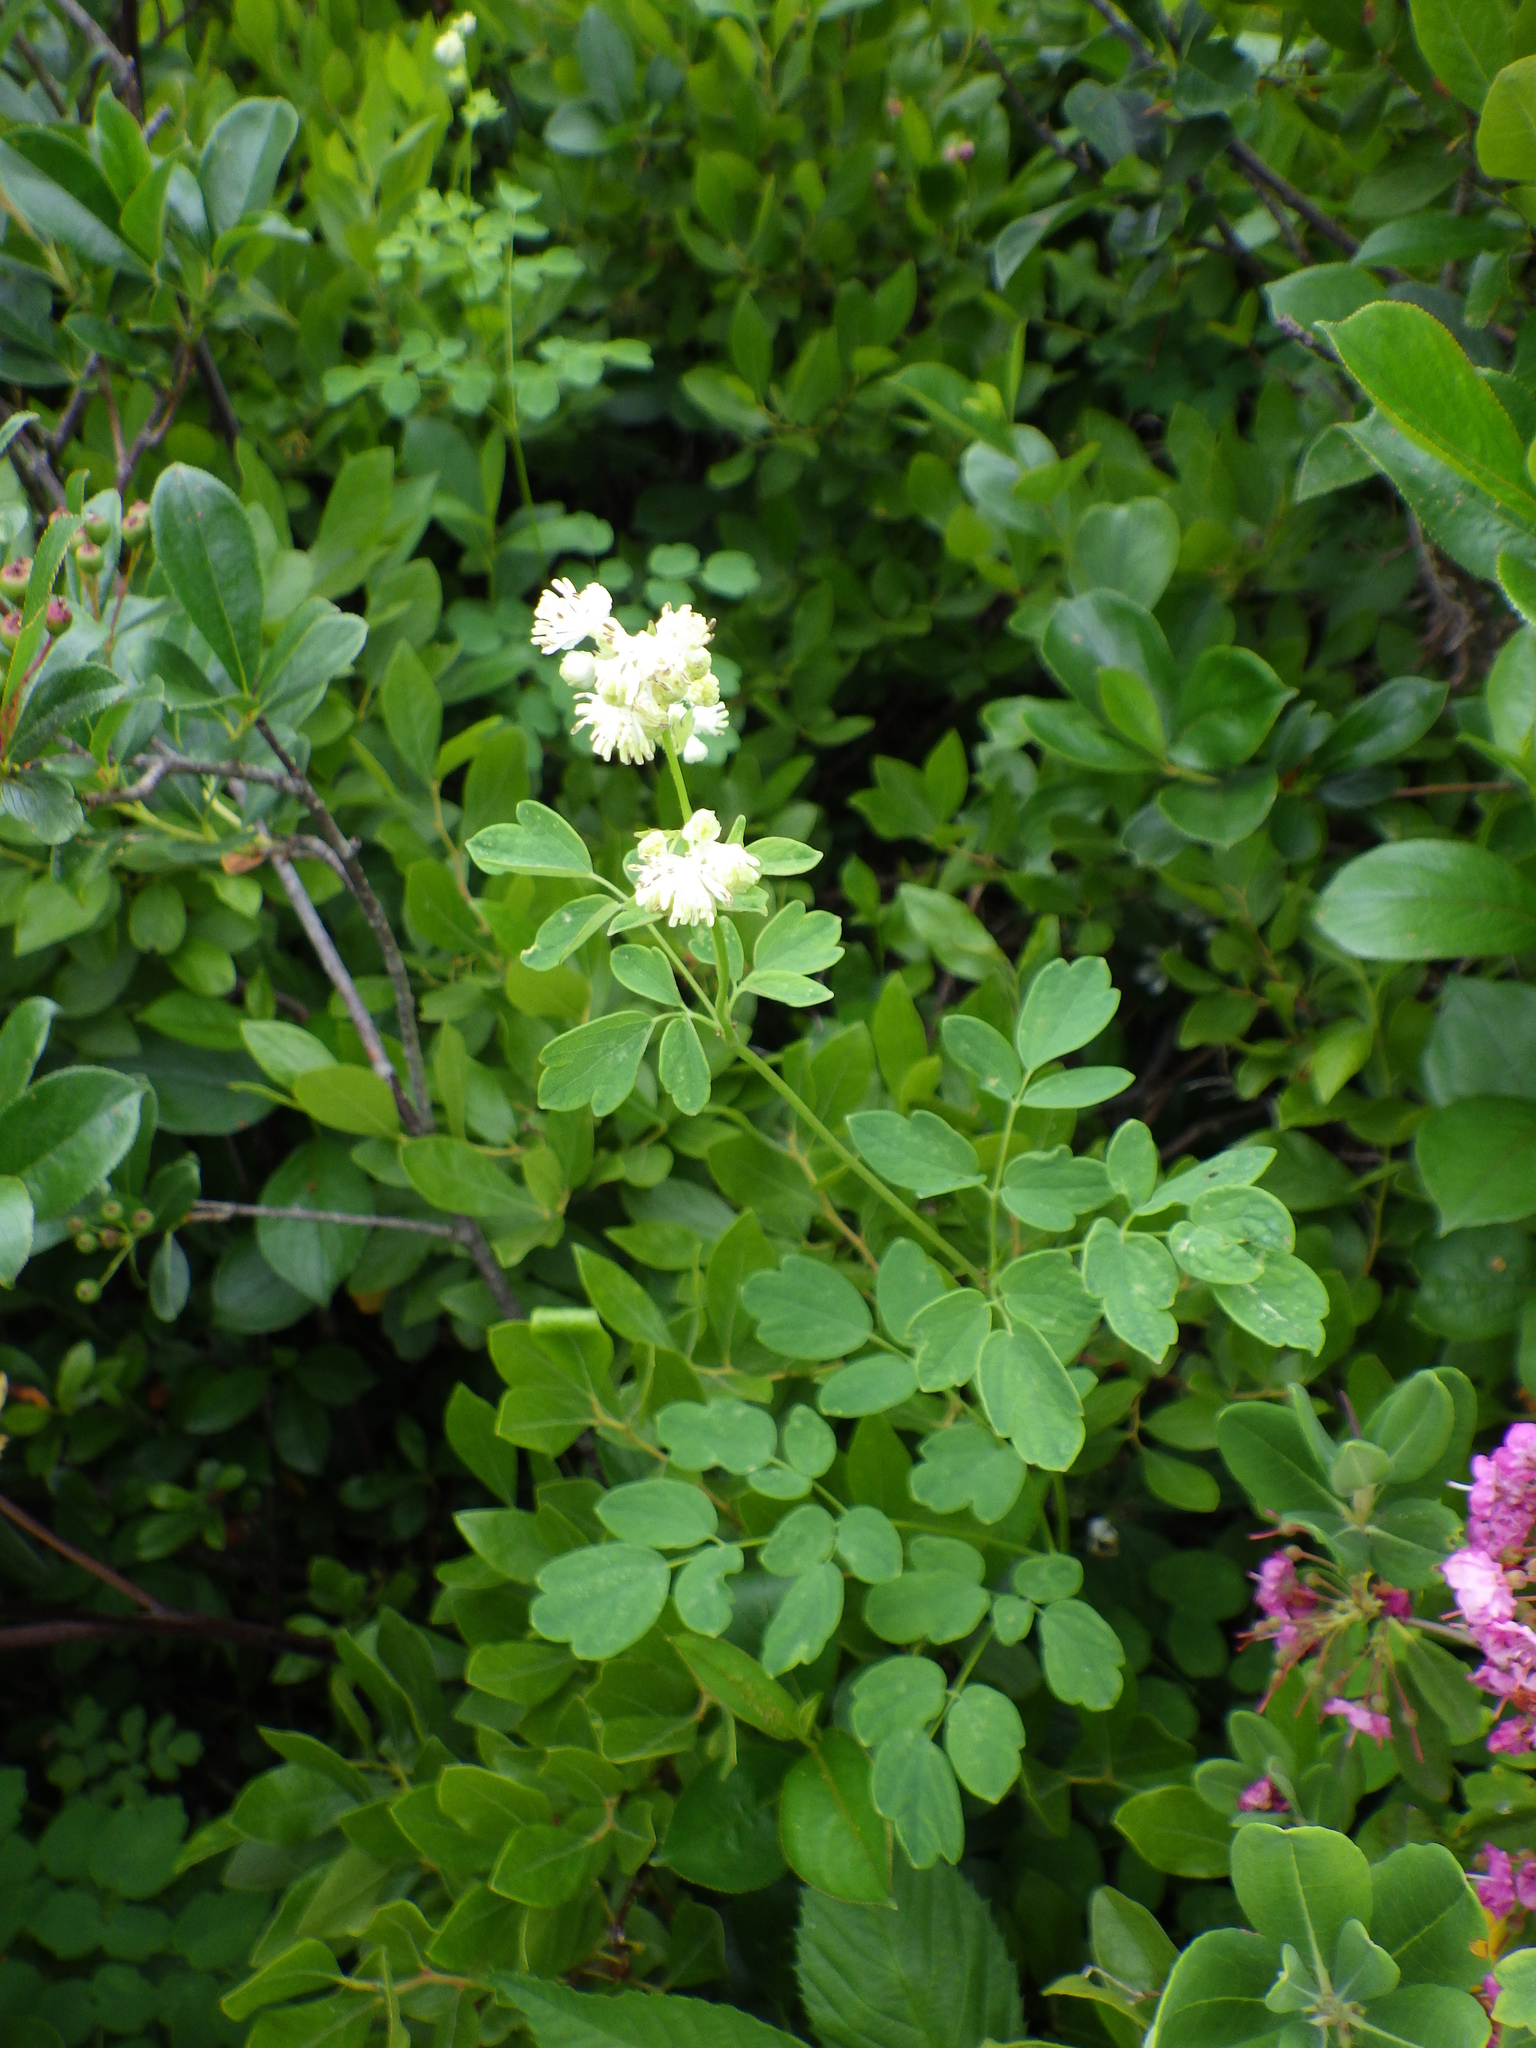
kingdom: Plantae
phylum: Tracheophyta
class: Magnoliopsida
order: Ranunculales
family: Ranunculaceae
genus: Thalictrum
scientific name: Thalictrum pubescens
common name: King-of-the-meadow
